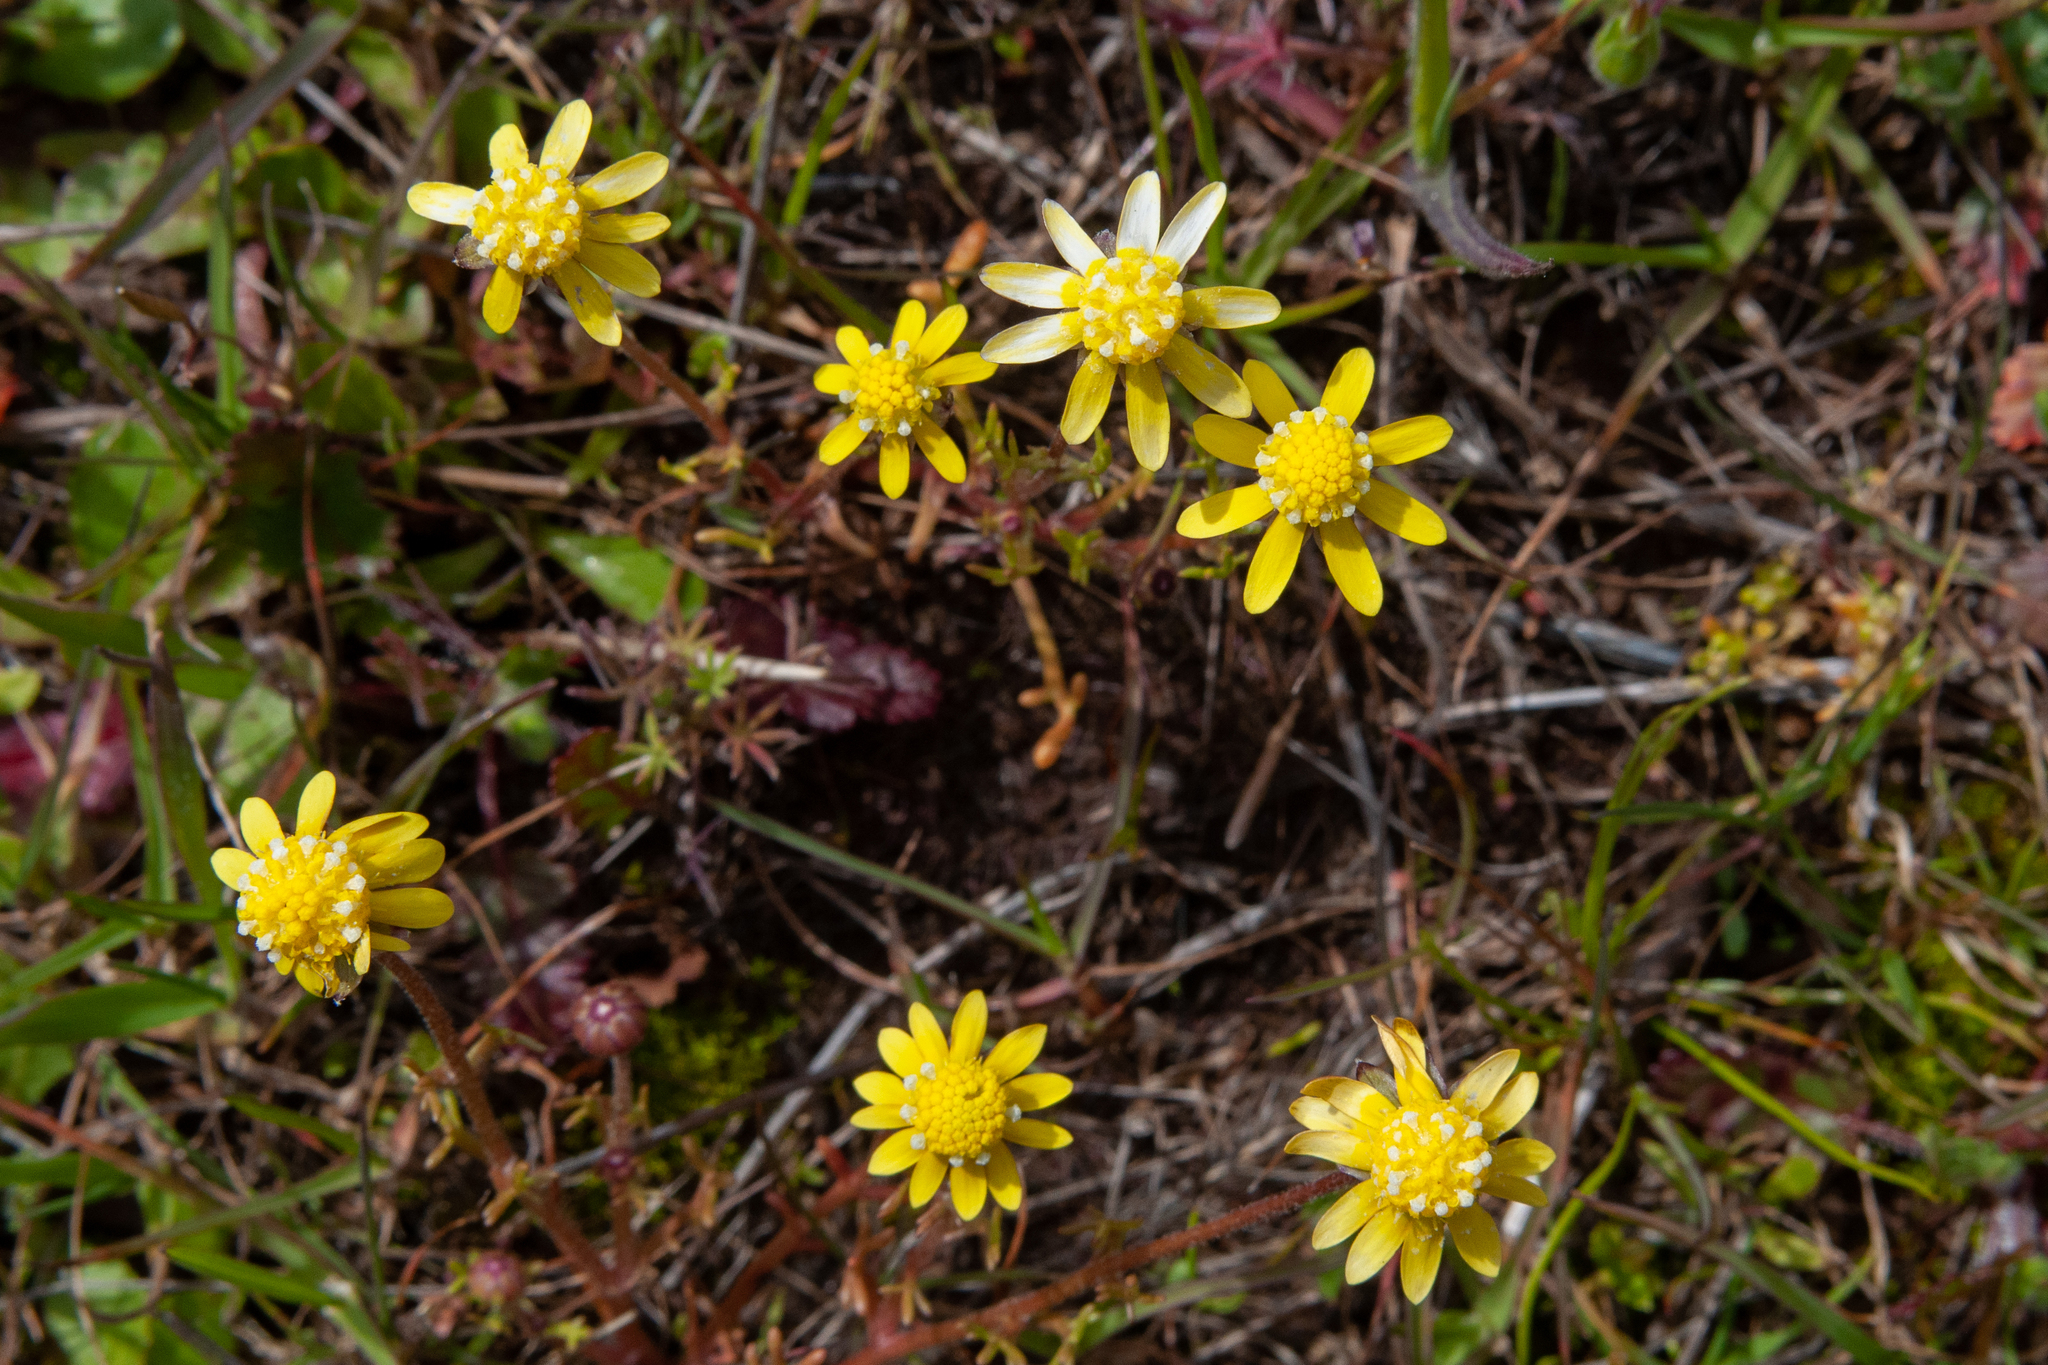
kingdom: Plantae
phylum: Tracheophyta
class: Magnoliopsida
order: Asterales
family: Asteraceae
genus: Blennosperma
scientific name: Blennosperma nanum
